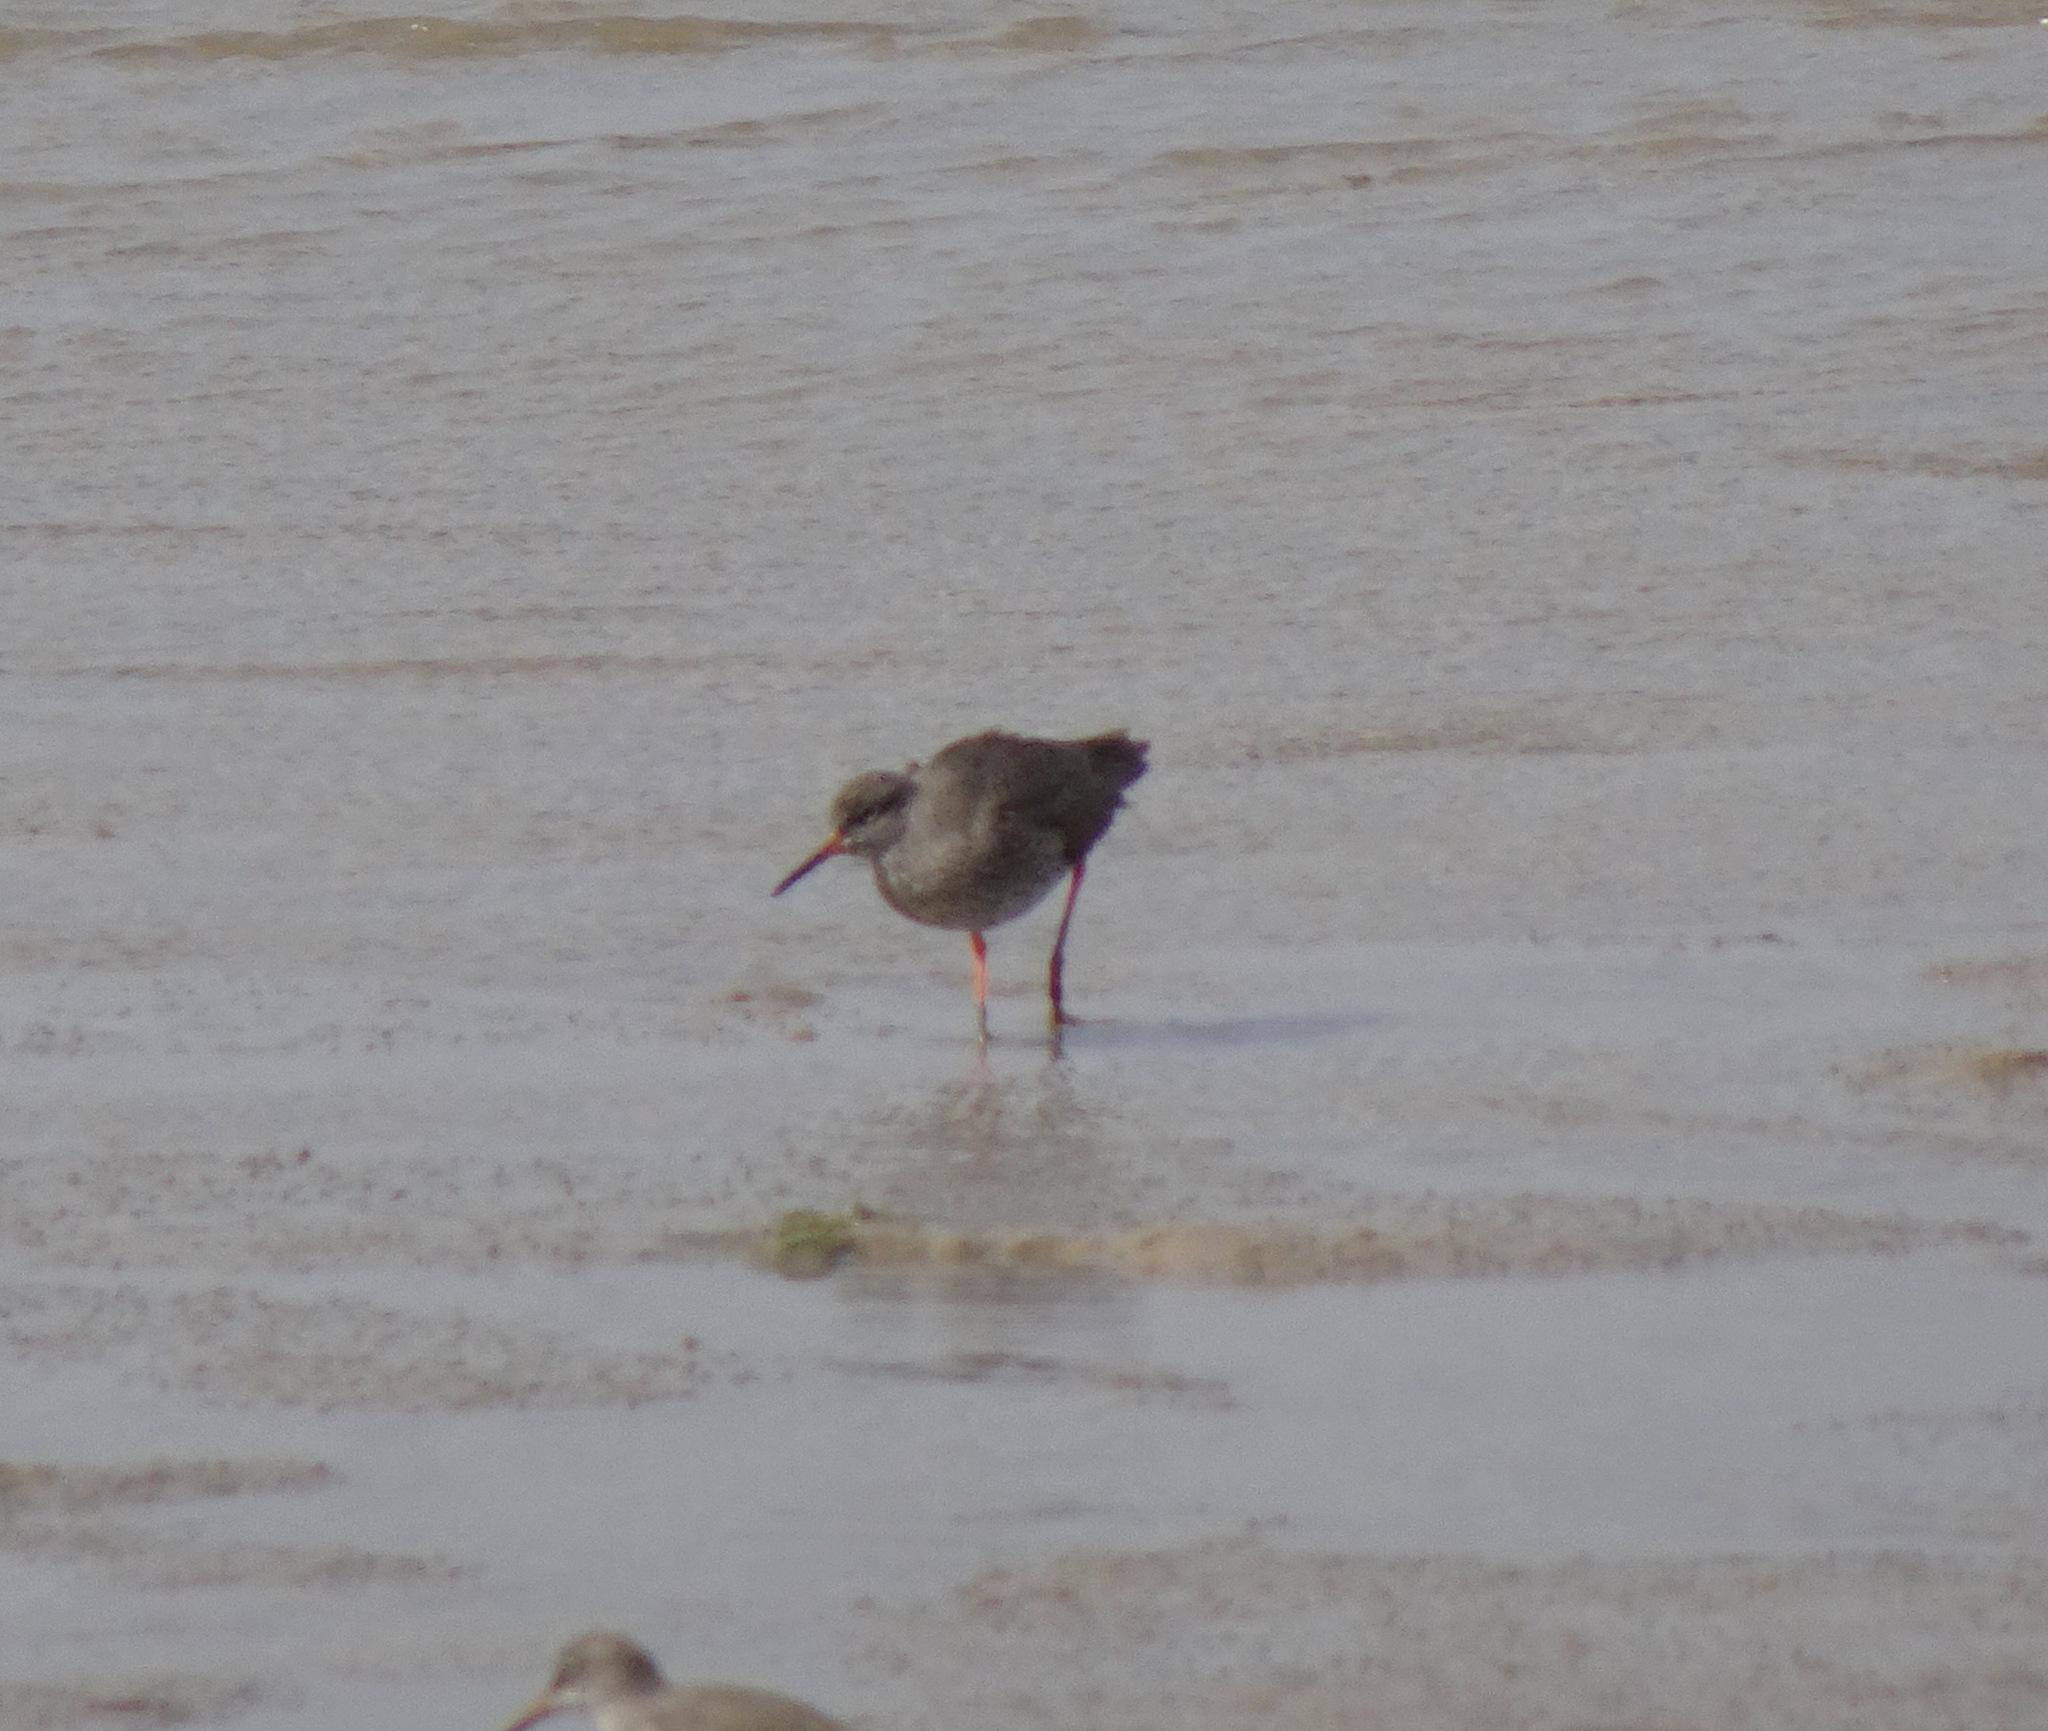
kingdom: Animalia
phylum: Chordata
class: Aves
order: Charadriiformes
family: Scolopacidae
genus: Tringa
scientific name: Tringa totanus
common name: Common redshank
